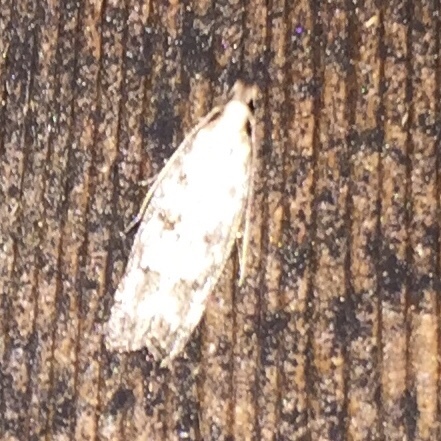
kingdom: Animalia
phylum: Arthropoda
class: Insecta
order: Lepidoptera
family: Gelechiidae
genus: Dichomeris
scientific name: Dichomeris
